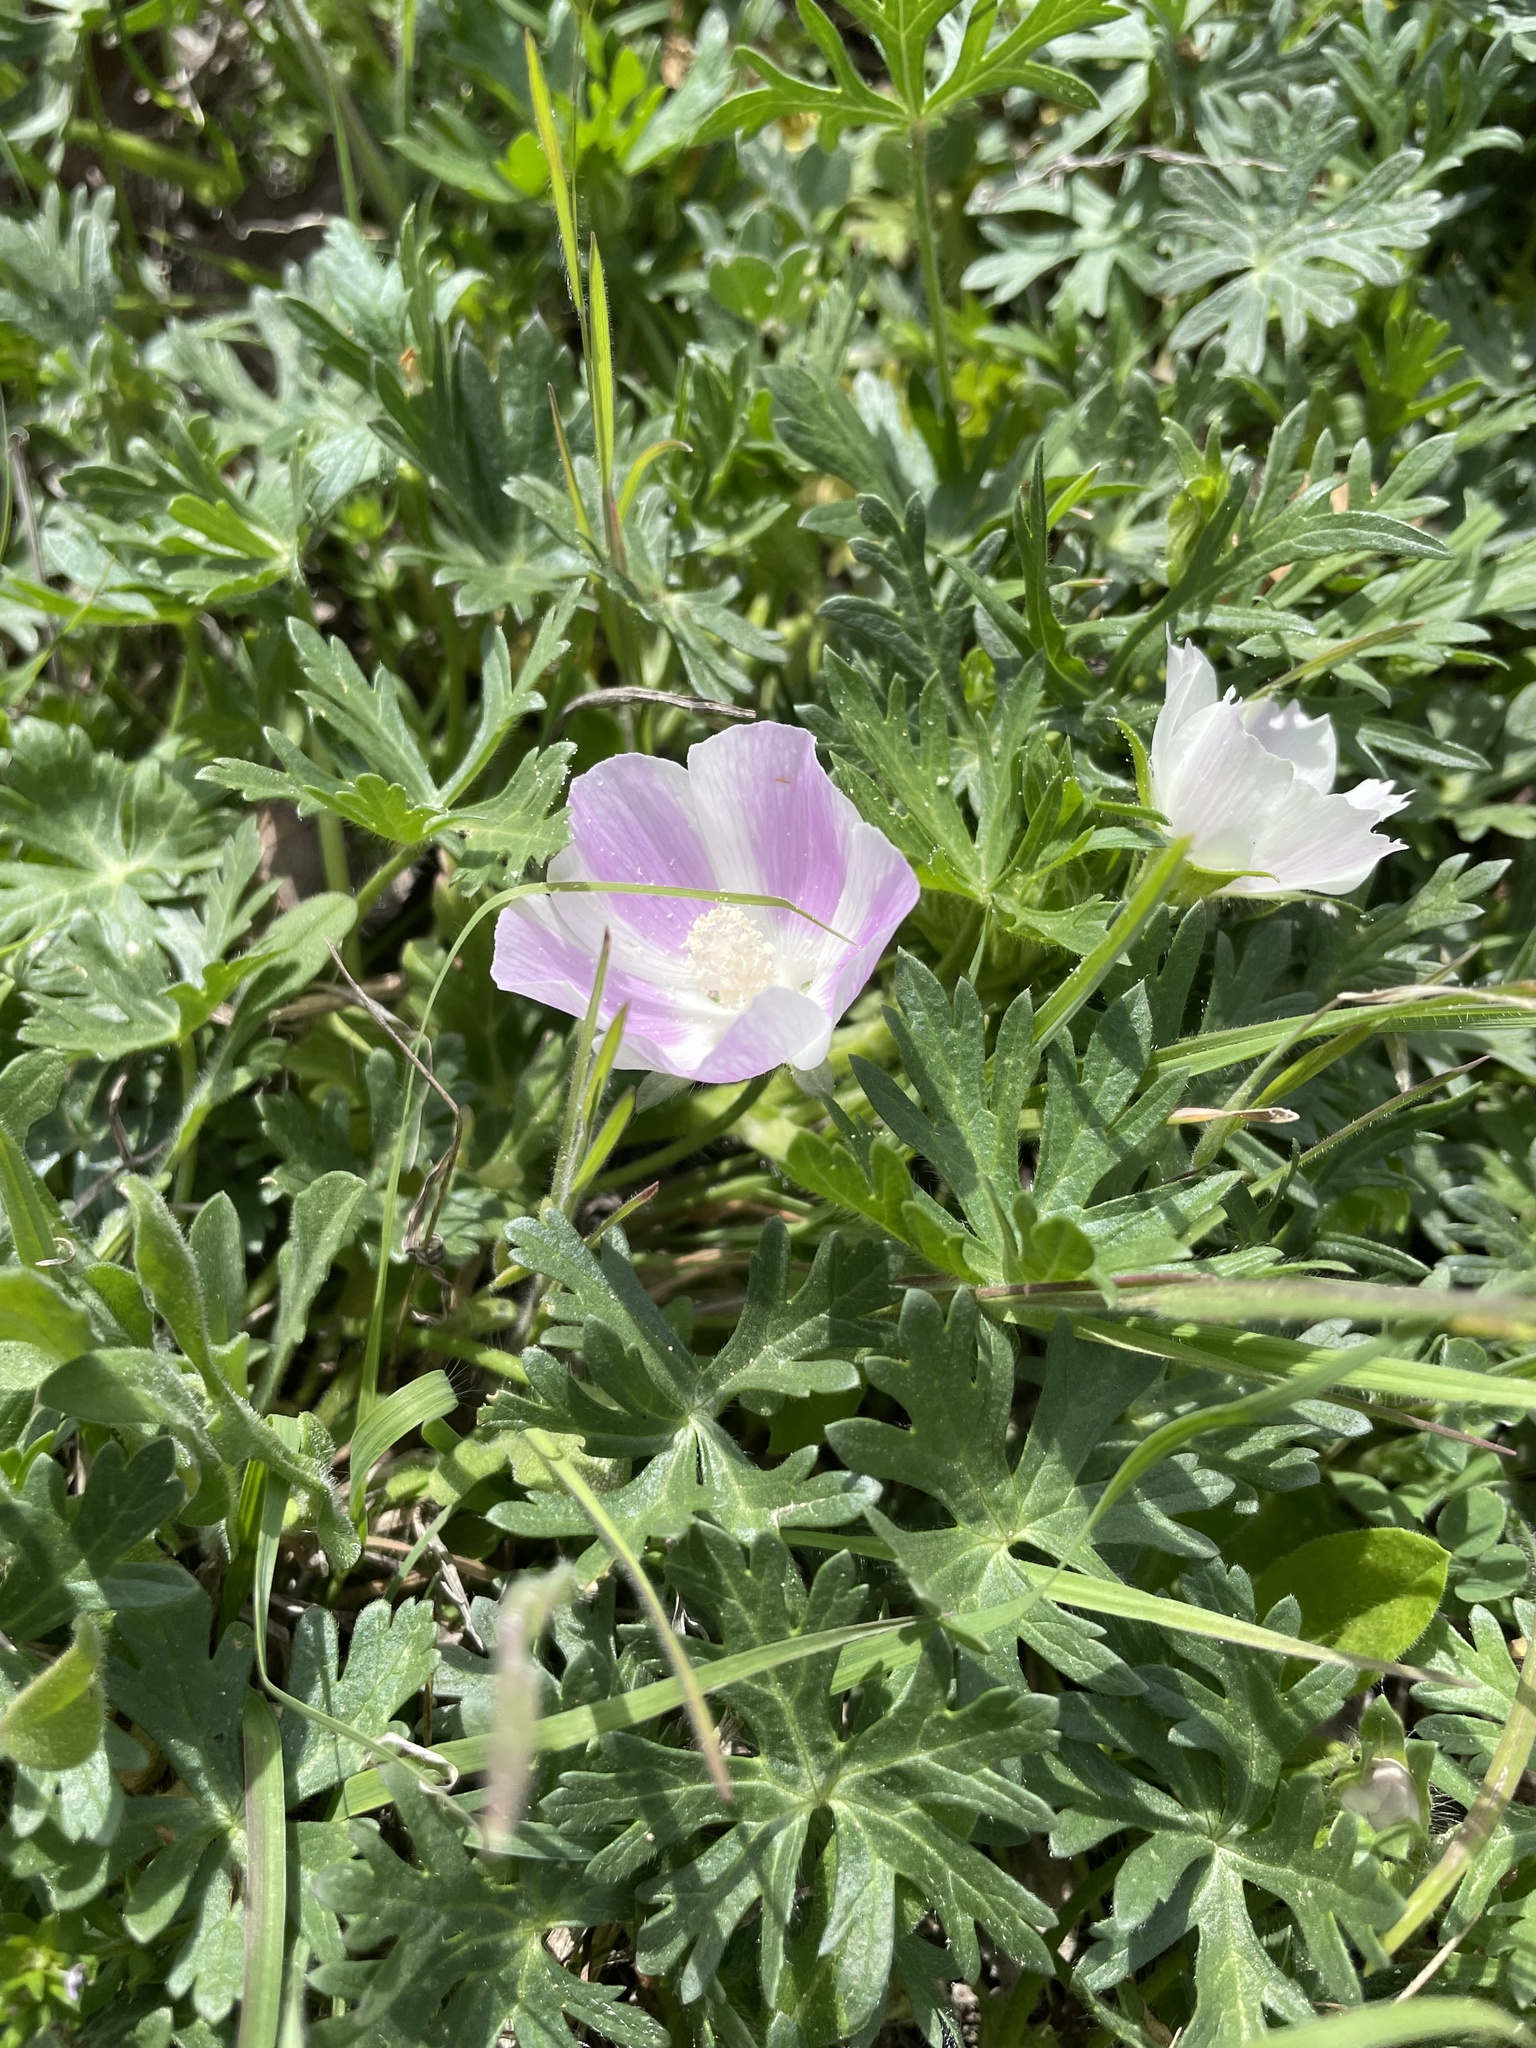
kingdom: Plantae
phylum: Tracheophyta
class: Magnoliopsida
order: Malvales
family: Malvaceae
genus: Callirhoe
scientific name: Callirhoe involucrata
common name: Purple poppy-mallow
